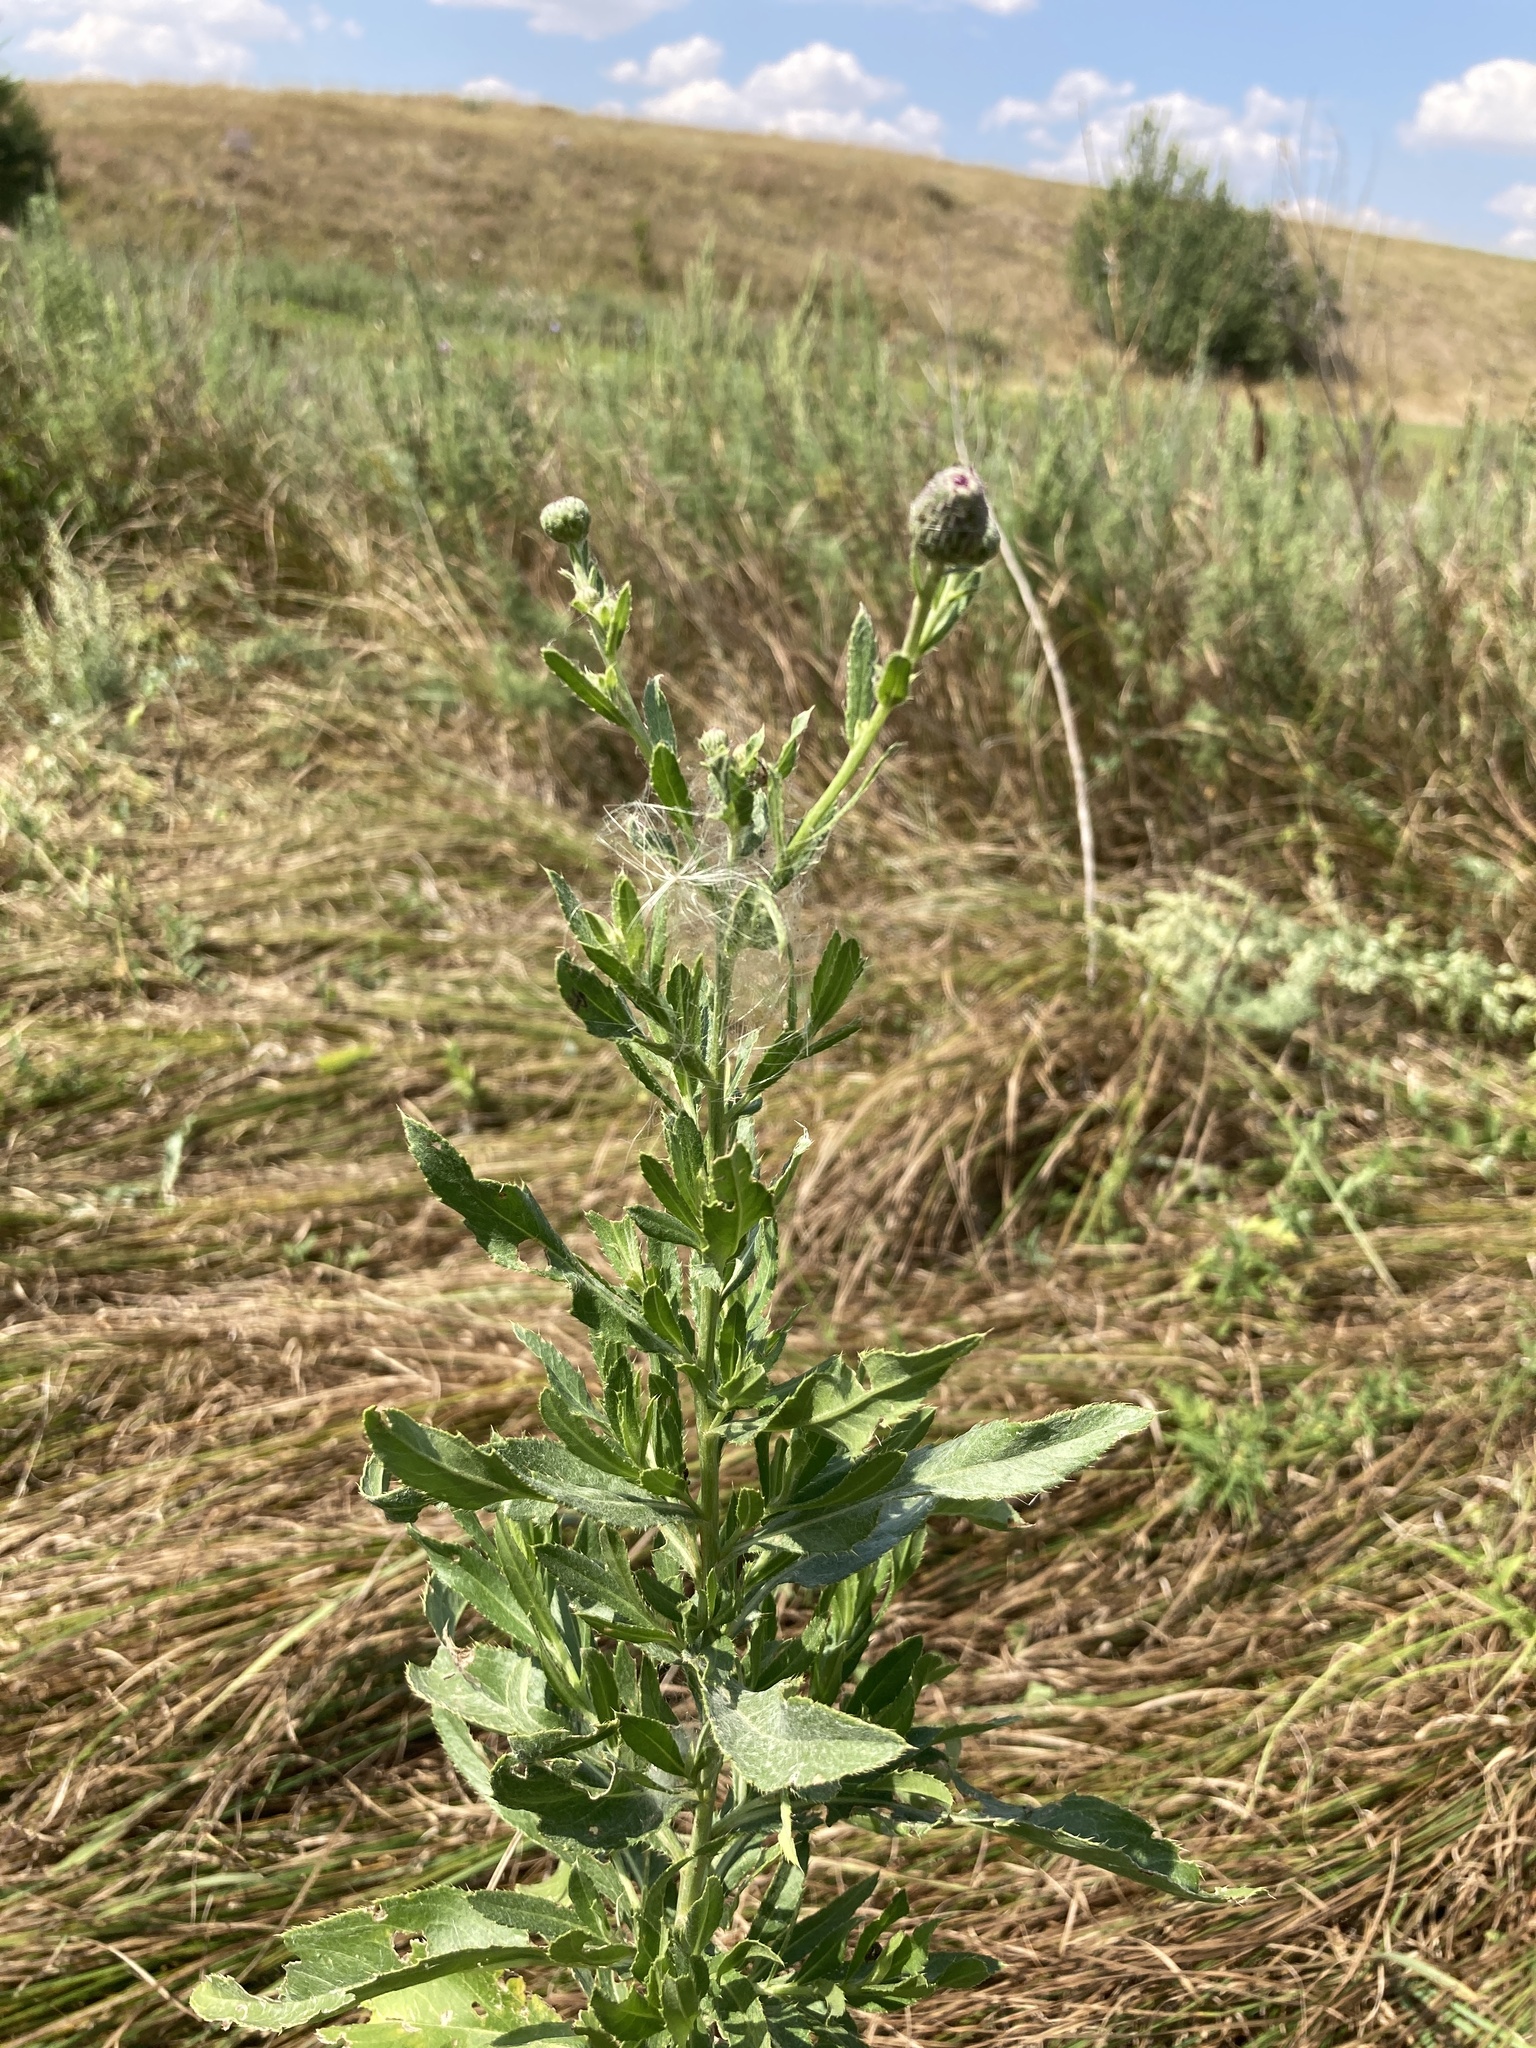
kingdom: Plantae
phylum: Tracheophyta
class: Magnoliopsida
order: Asterales
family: Asteraceae
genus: Cirsium
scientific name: Cirsium arvense
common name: Creeping thistle
